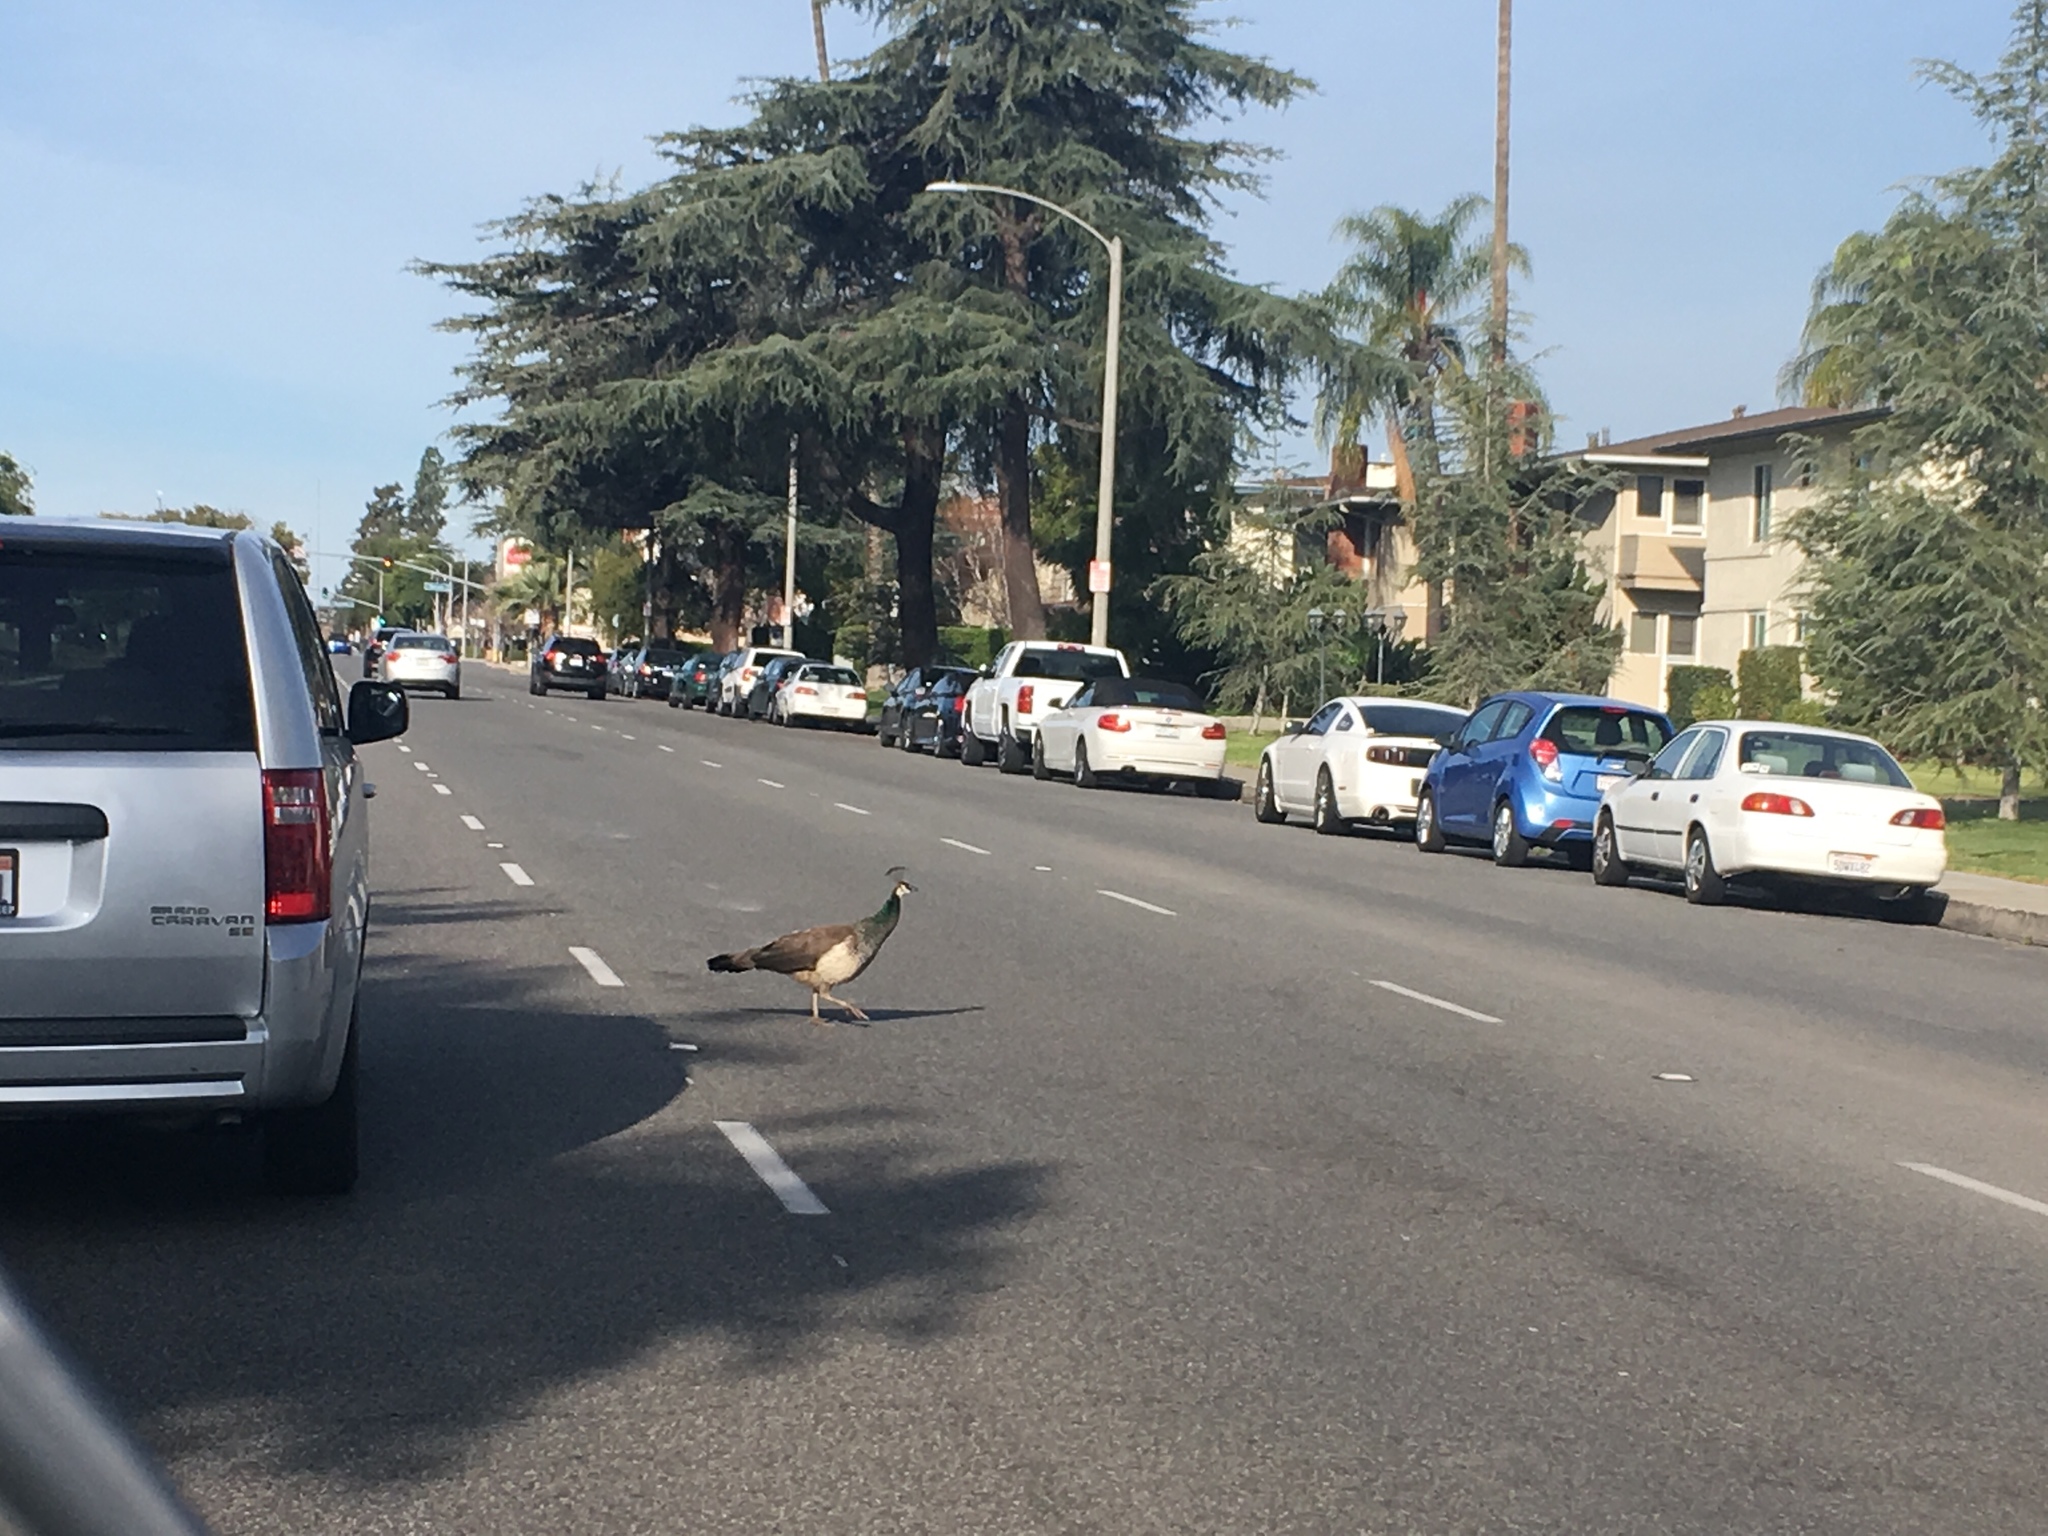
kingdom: Animalia
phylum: Chordata
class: Aves
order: Galliformes
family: Phasianidae
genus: Pavo
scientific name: Pavo cristatus
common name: Indian peafowl
